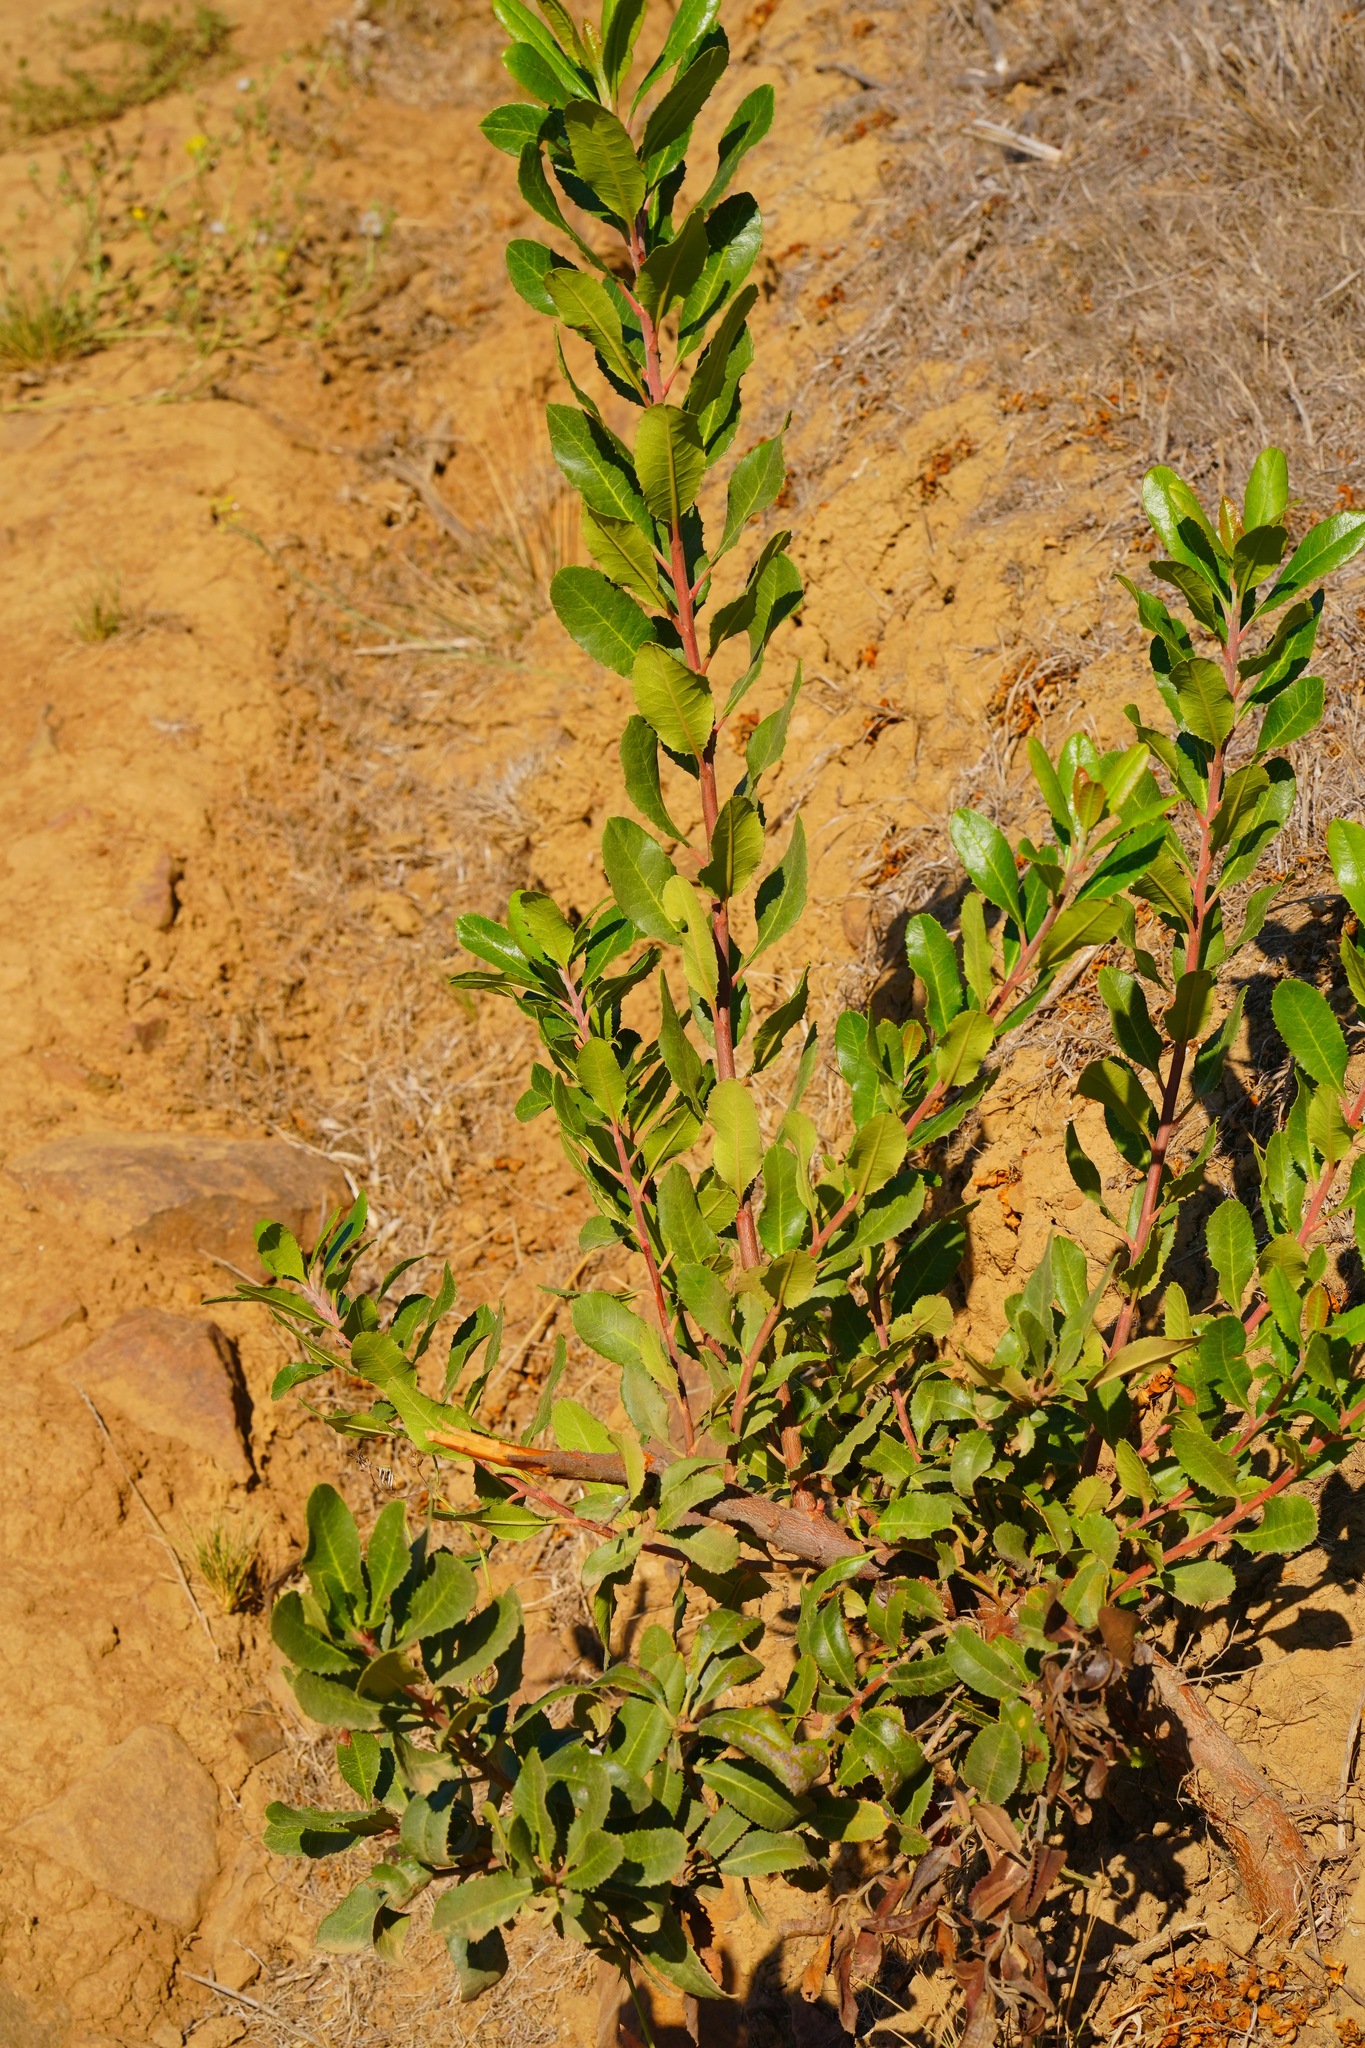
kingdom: Plantae
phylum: Tracheophyta
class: Magnoliopsida
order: Rosales
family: Rosaceae
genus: Heteromeles
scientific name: Heteromeles arbutifolia
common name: California-holly
